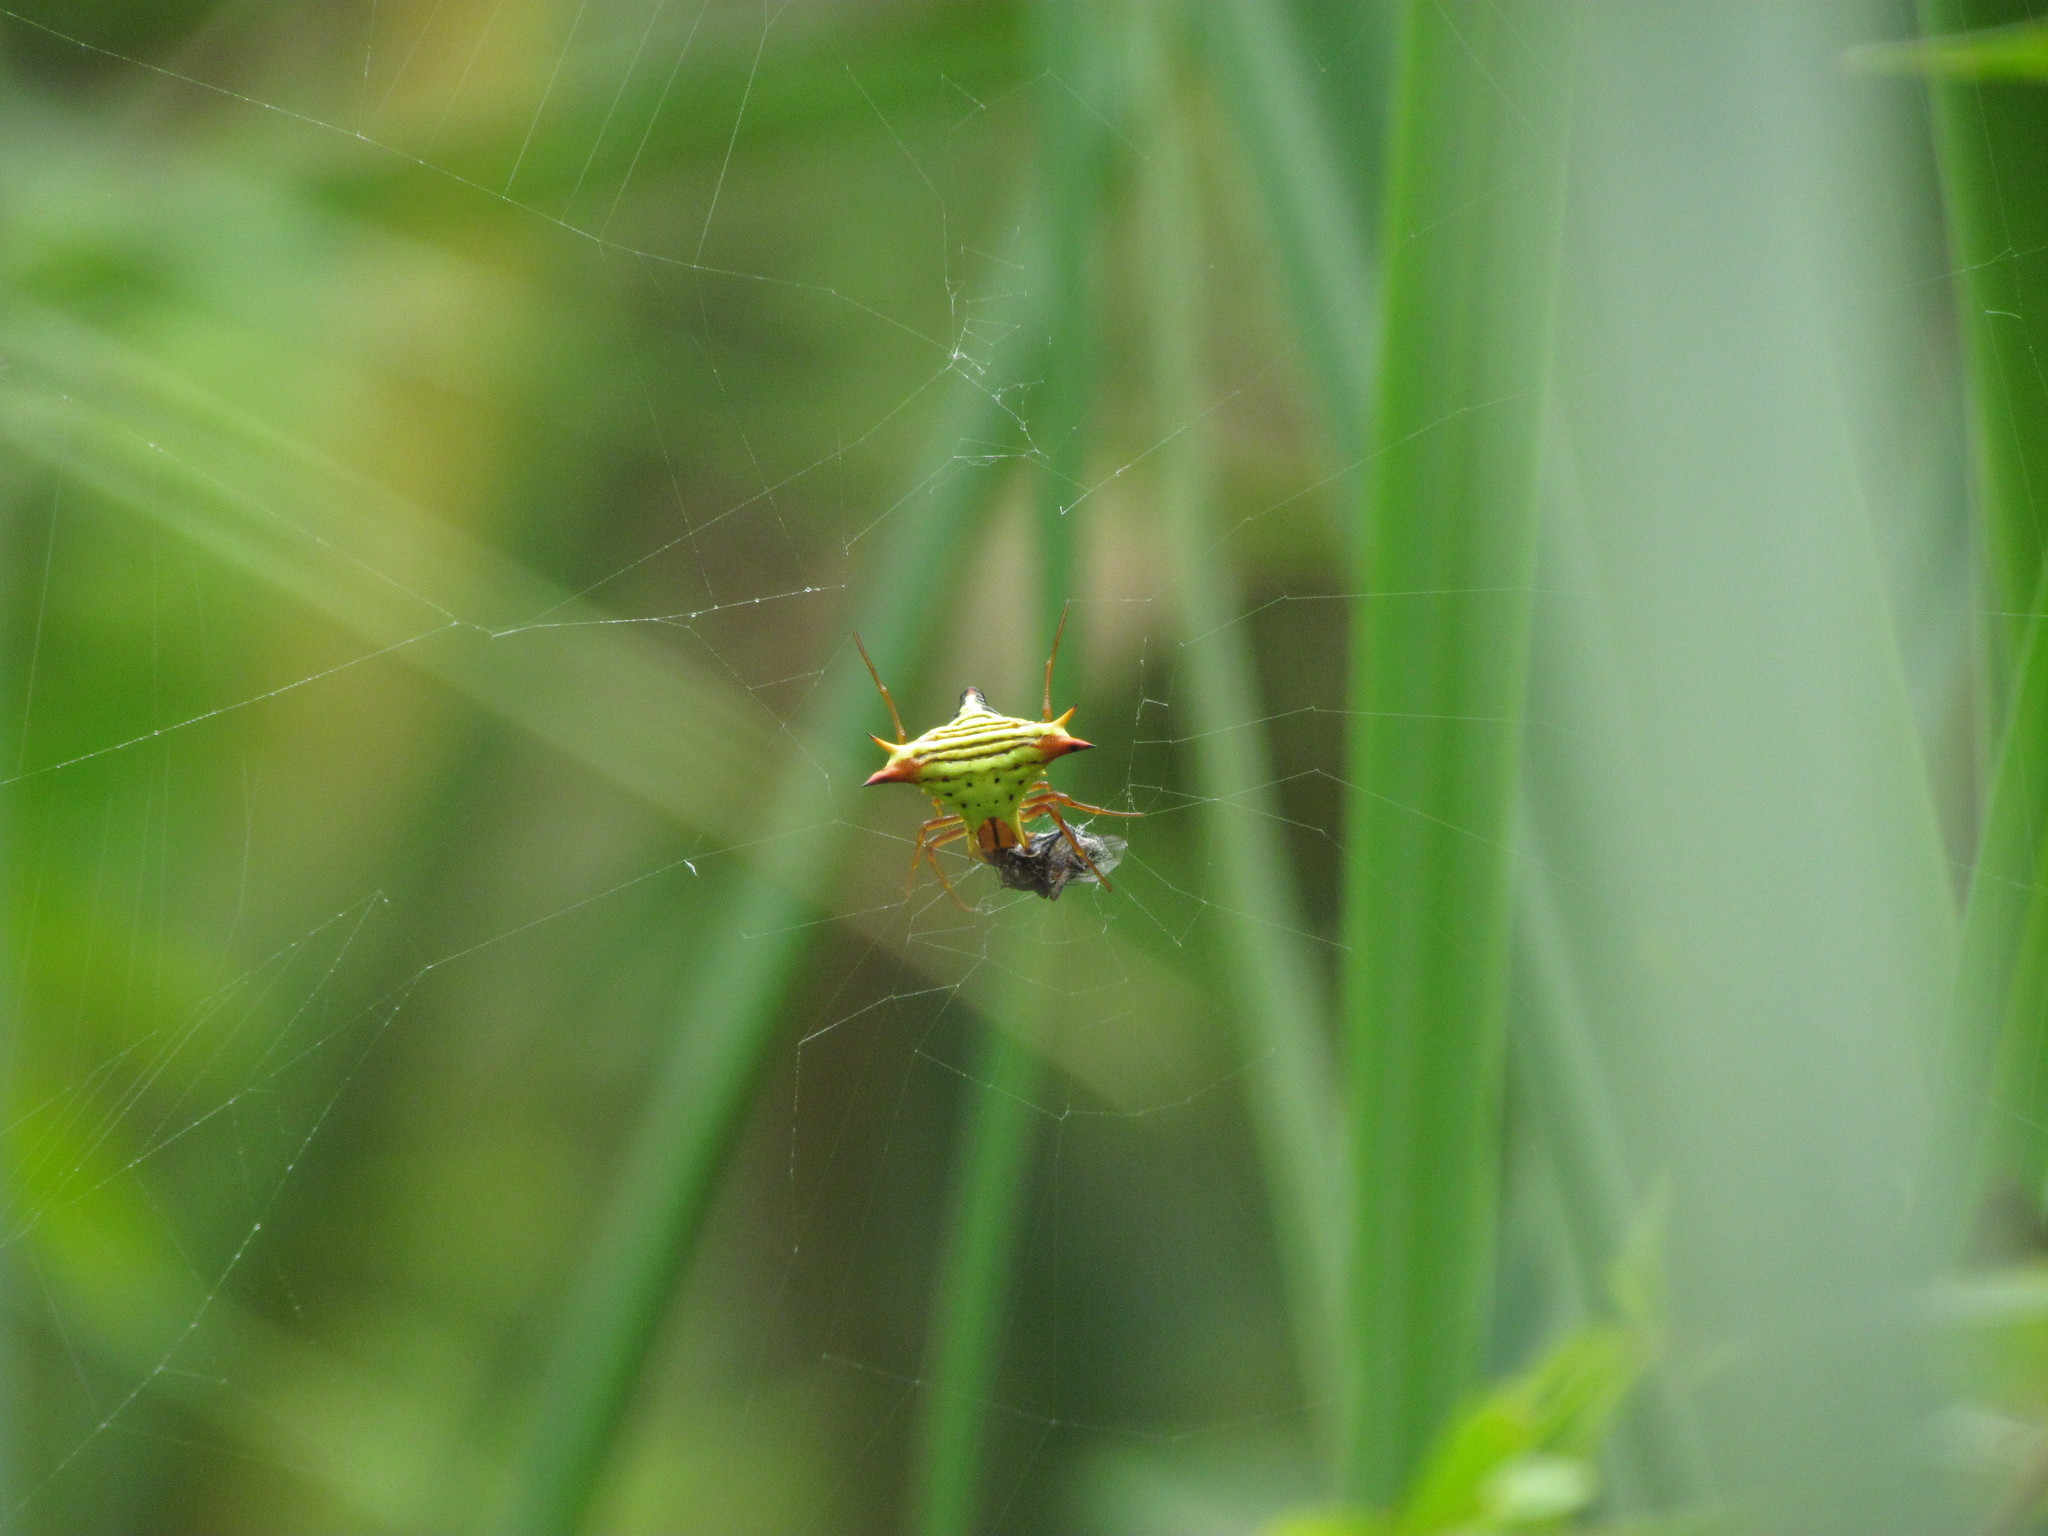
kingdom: Animalia
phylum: Arthropoda
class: Arachnida
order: Araneae
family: Araneidae
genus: Micrathena
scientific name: Micrathena furcata
